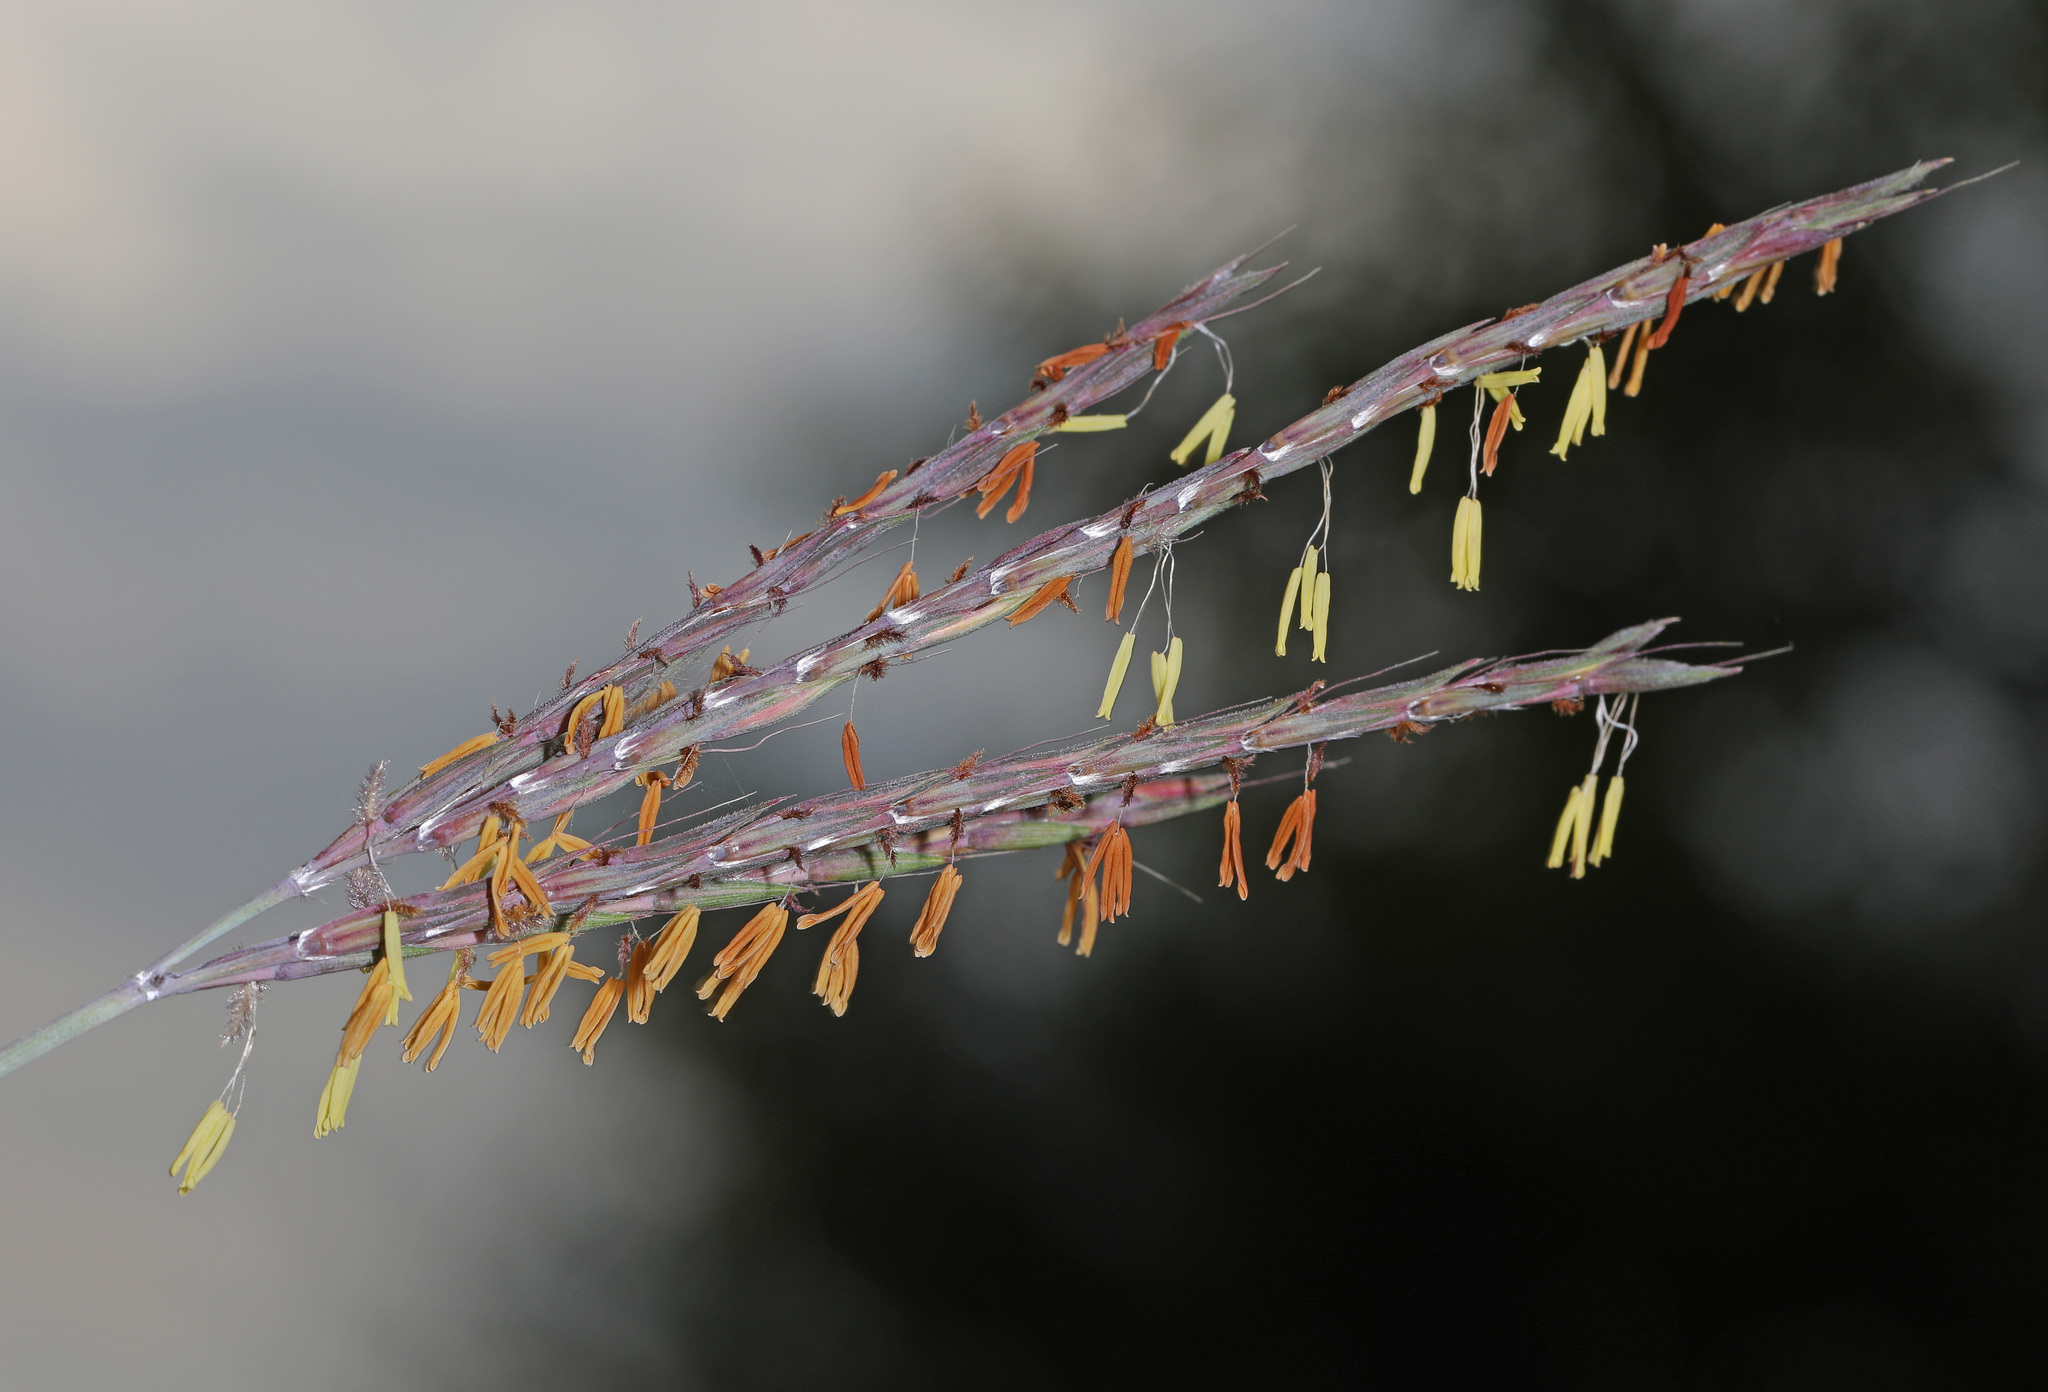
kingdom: Plantae
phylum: Tracheophyta
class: Liliopsida
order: Poales
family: Poaceae
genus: Andropogon
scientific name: Andropogon gerardi
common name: Big bluestem
